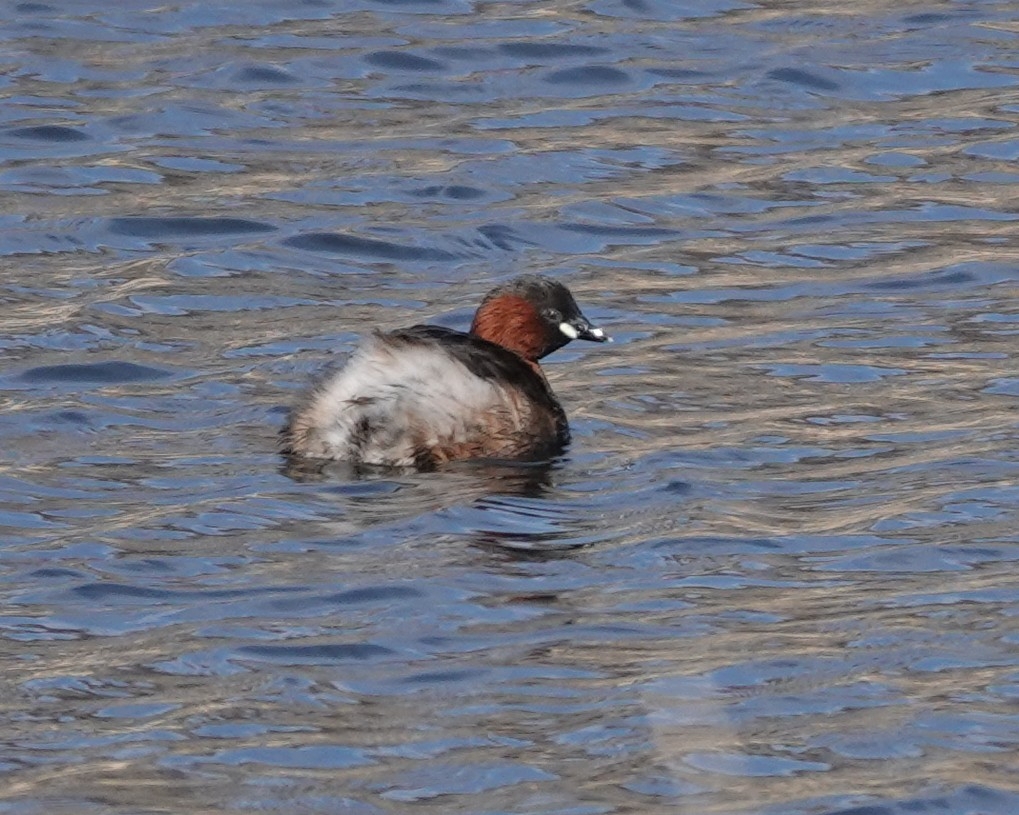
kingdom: Animalia
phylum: Chordata
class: Aves
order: Podicipediformes
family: Podicipedidae
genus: Tachybaptus
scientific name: Tachybaptus ruficollis
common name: Little grebe
